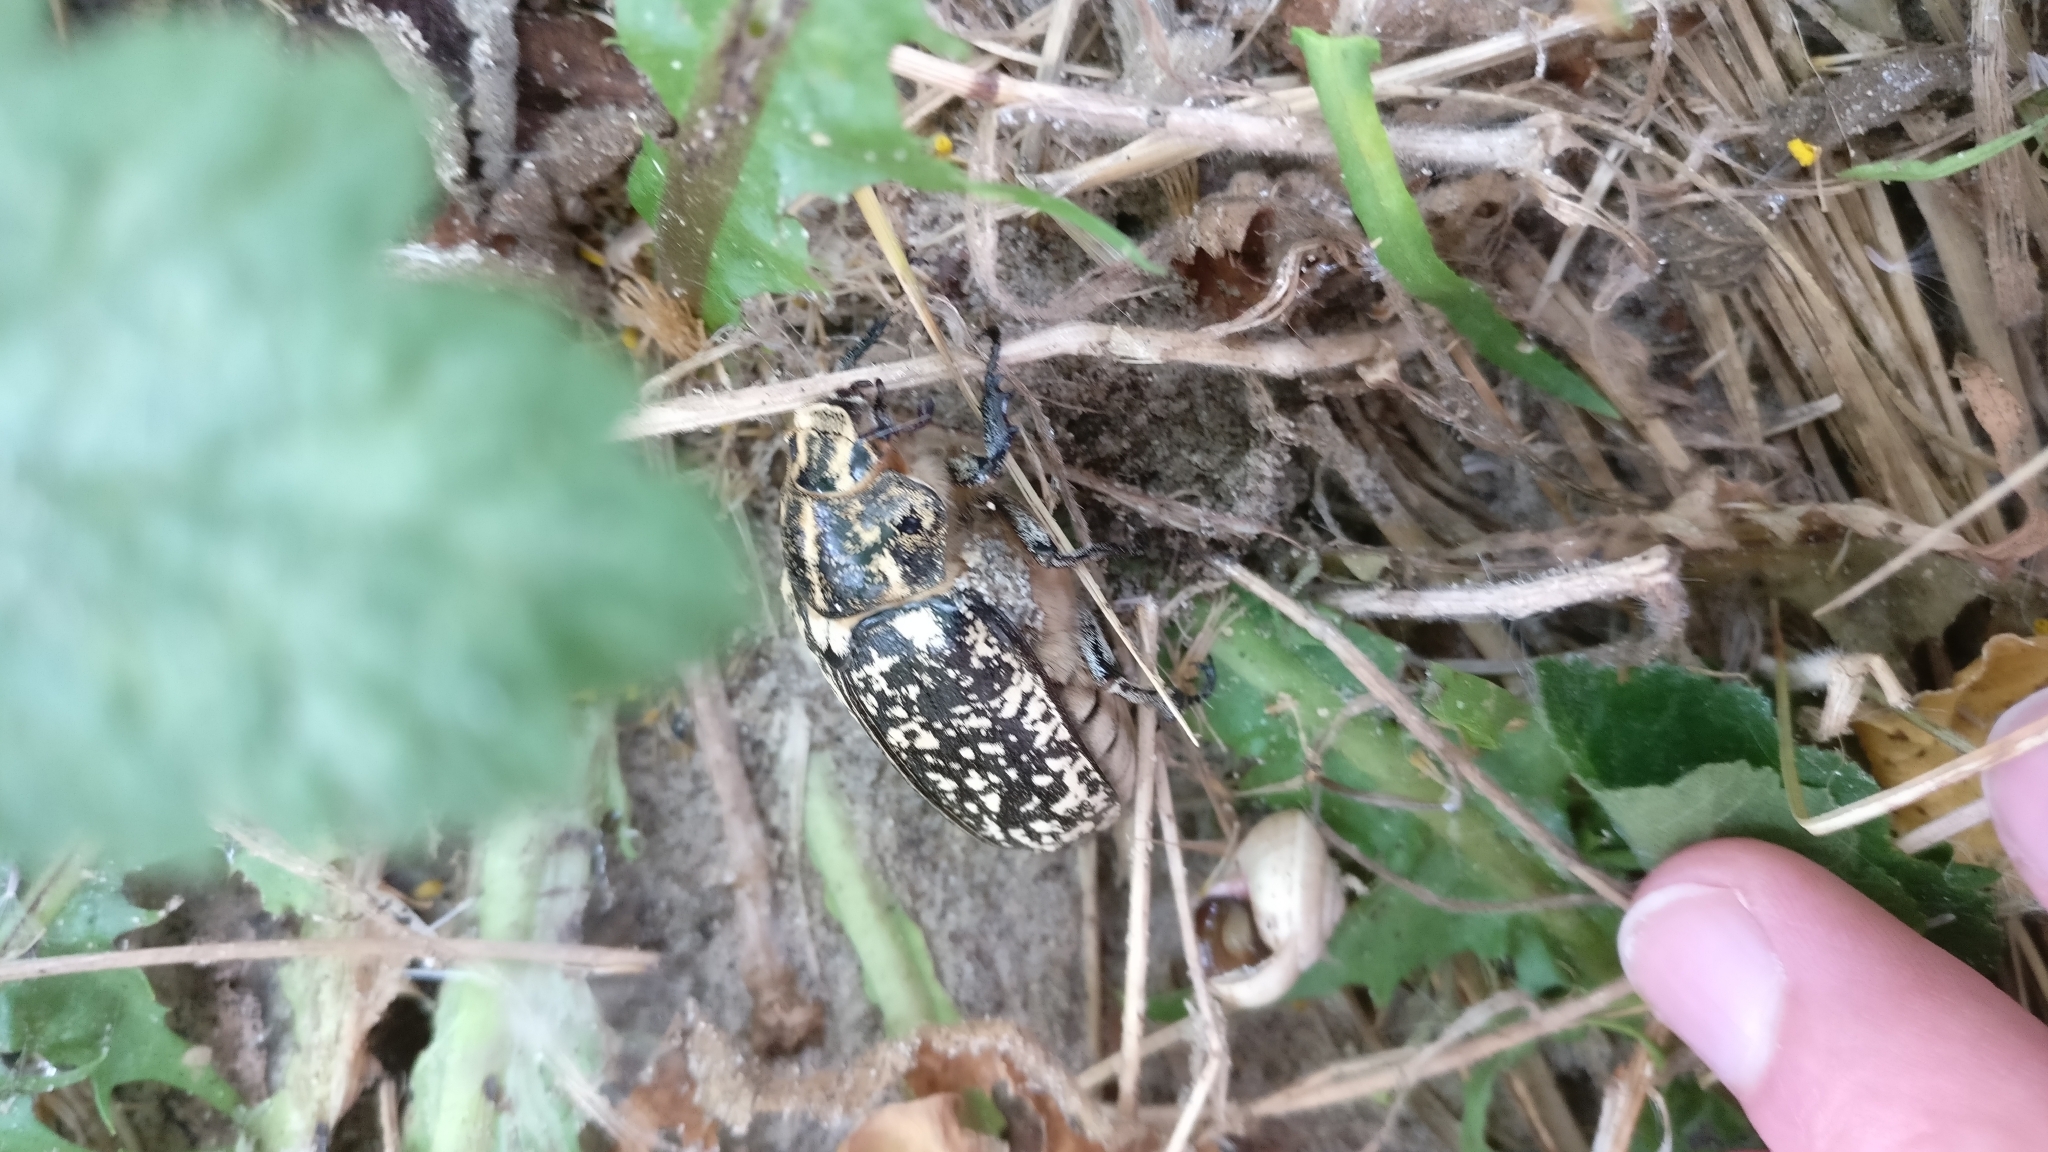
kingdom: Animalia
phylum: Arthropoda
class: Insecta
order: Coleoptera
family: Scarabaeidae
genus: Polyphylla
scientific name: Polyphylla fullo
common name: Pine chafer
